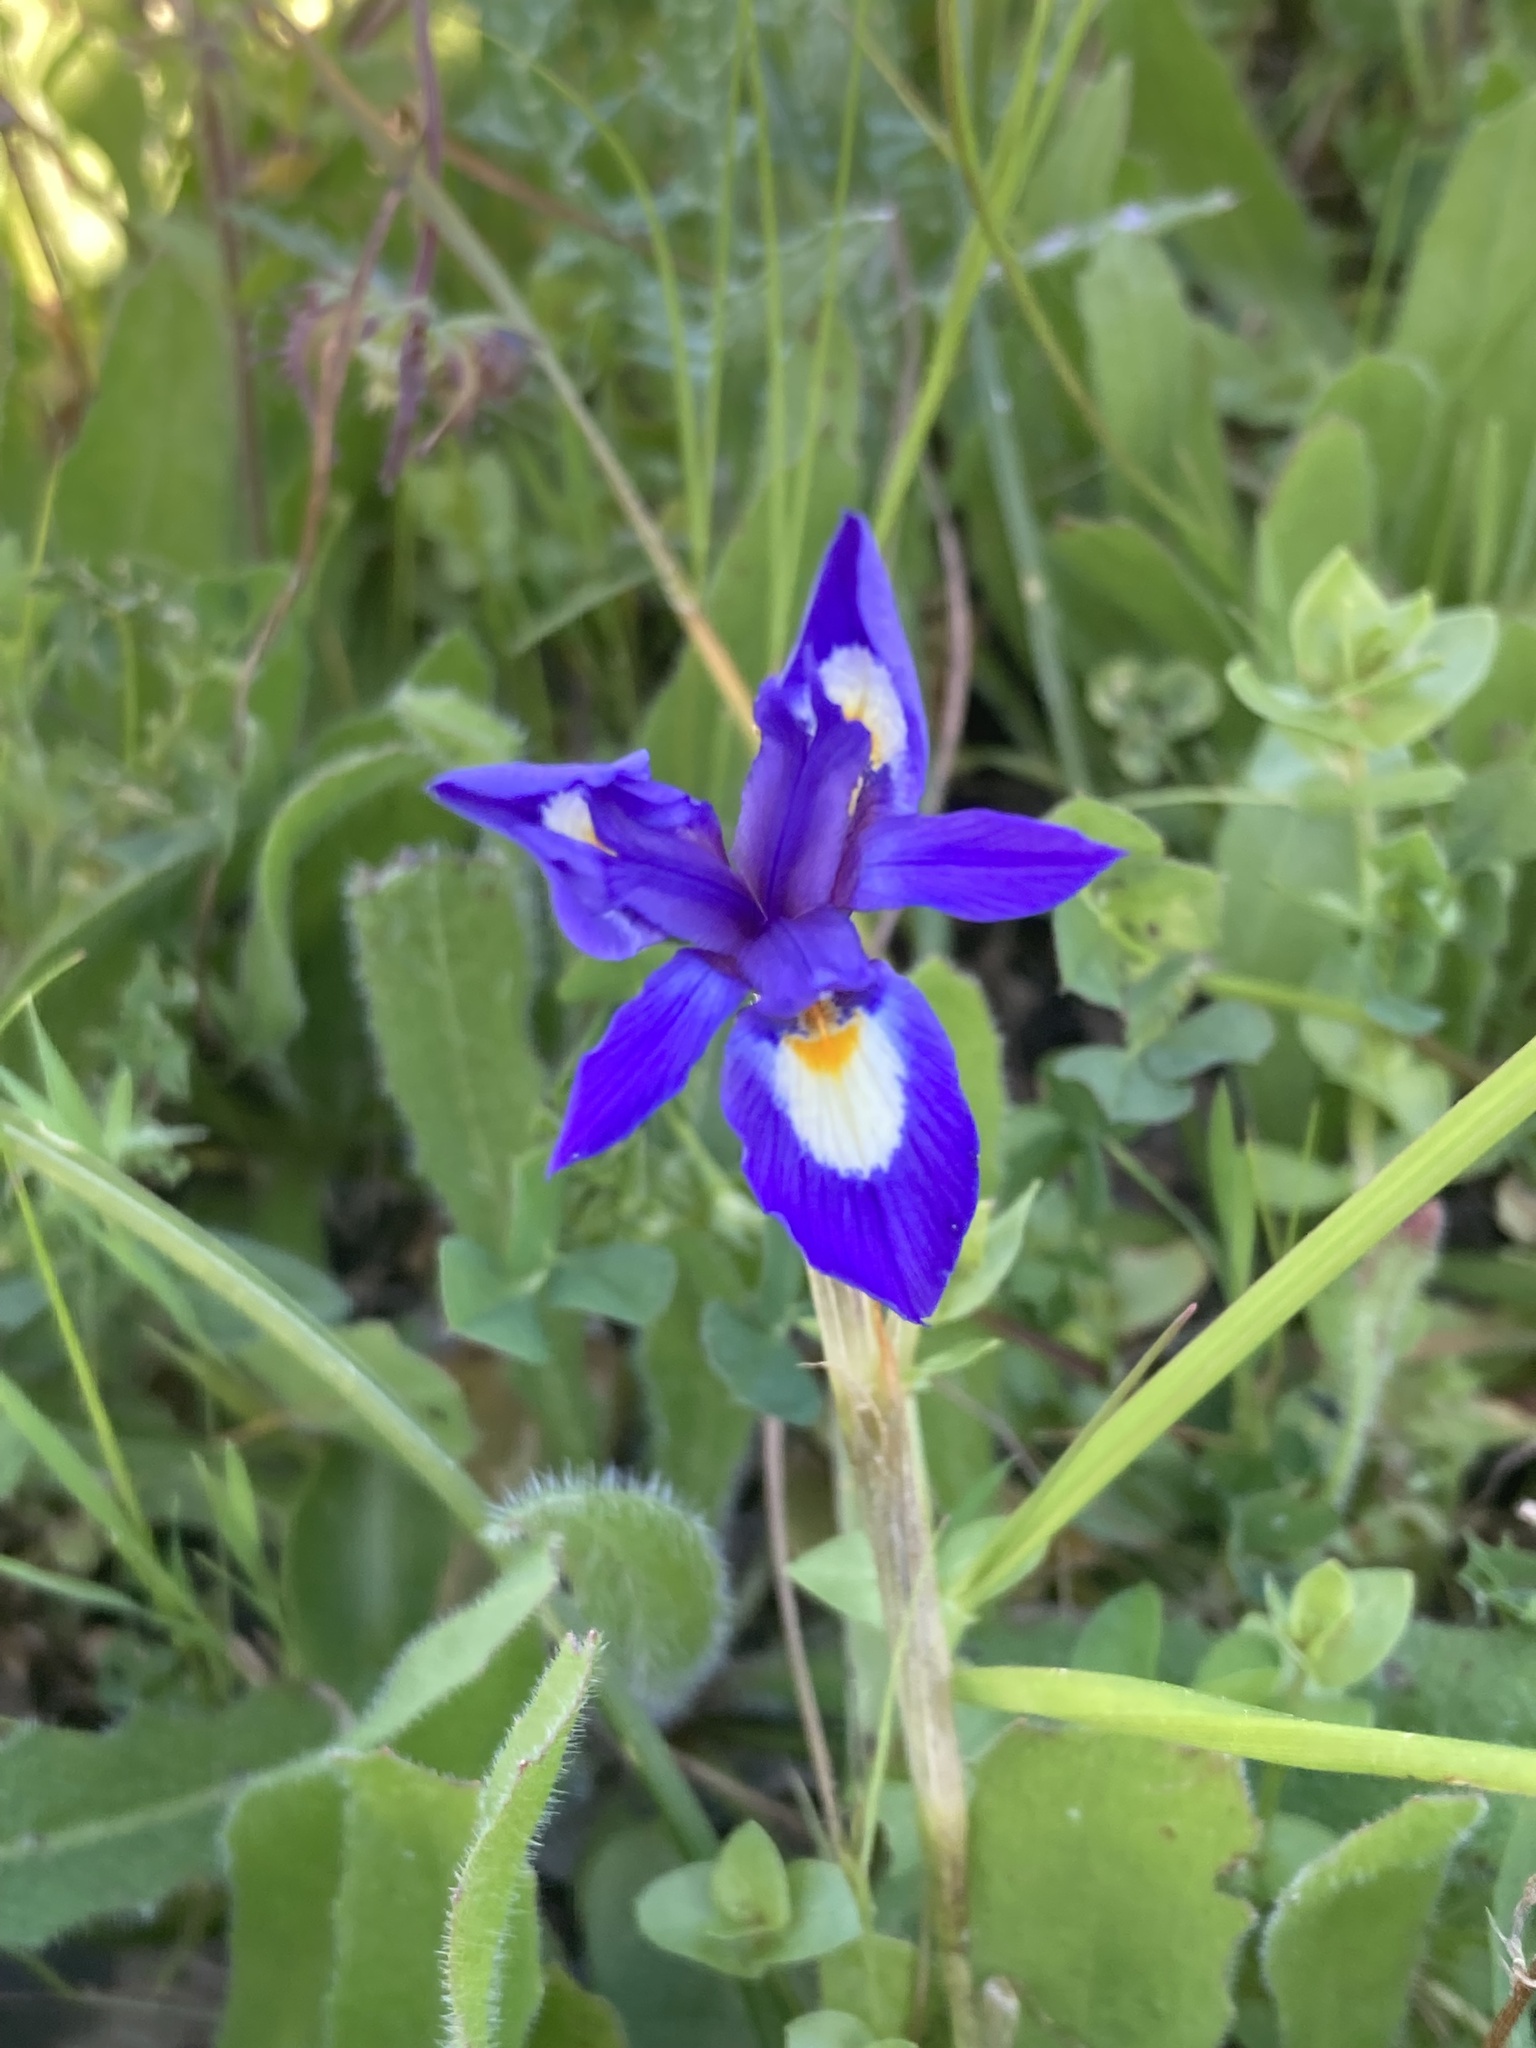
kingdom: Plantae
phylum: Tracheophyta
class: Liliopsida
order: Asparagales
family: Iridaceae
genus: Moraea
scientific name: Moraea sisyrinchium
